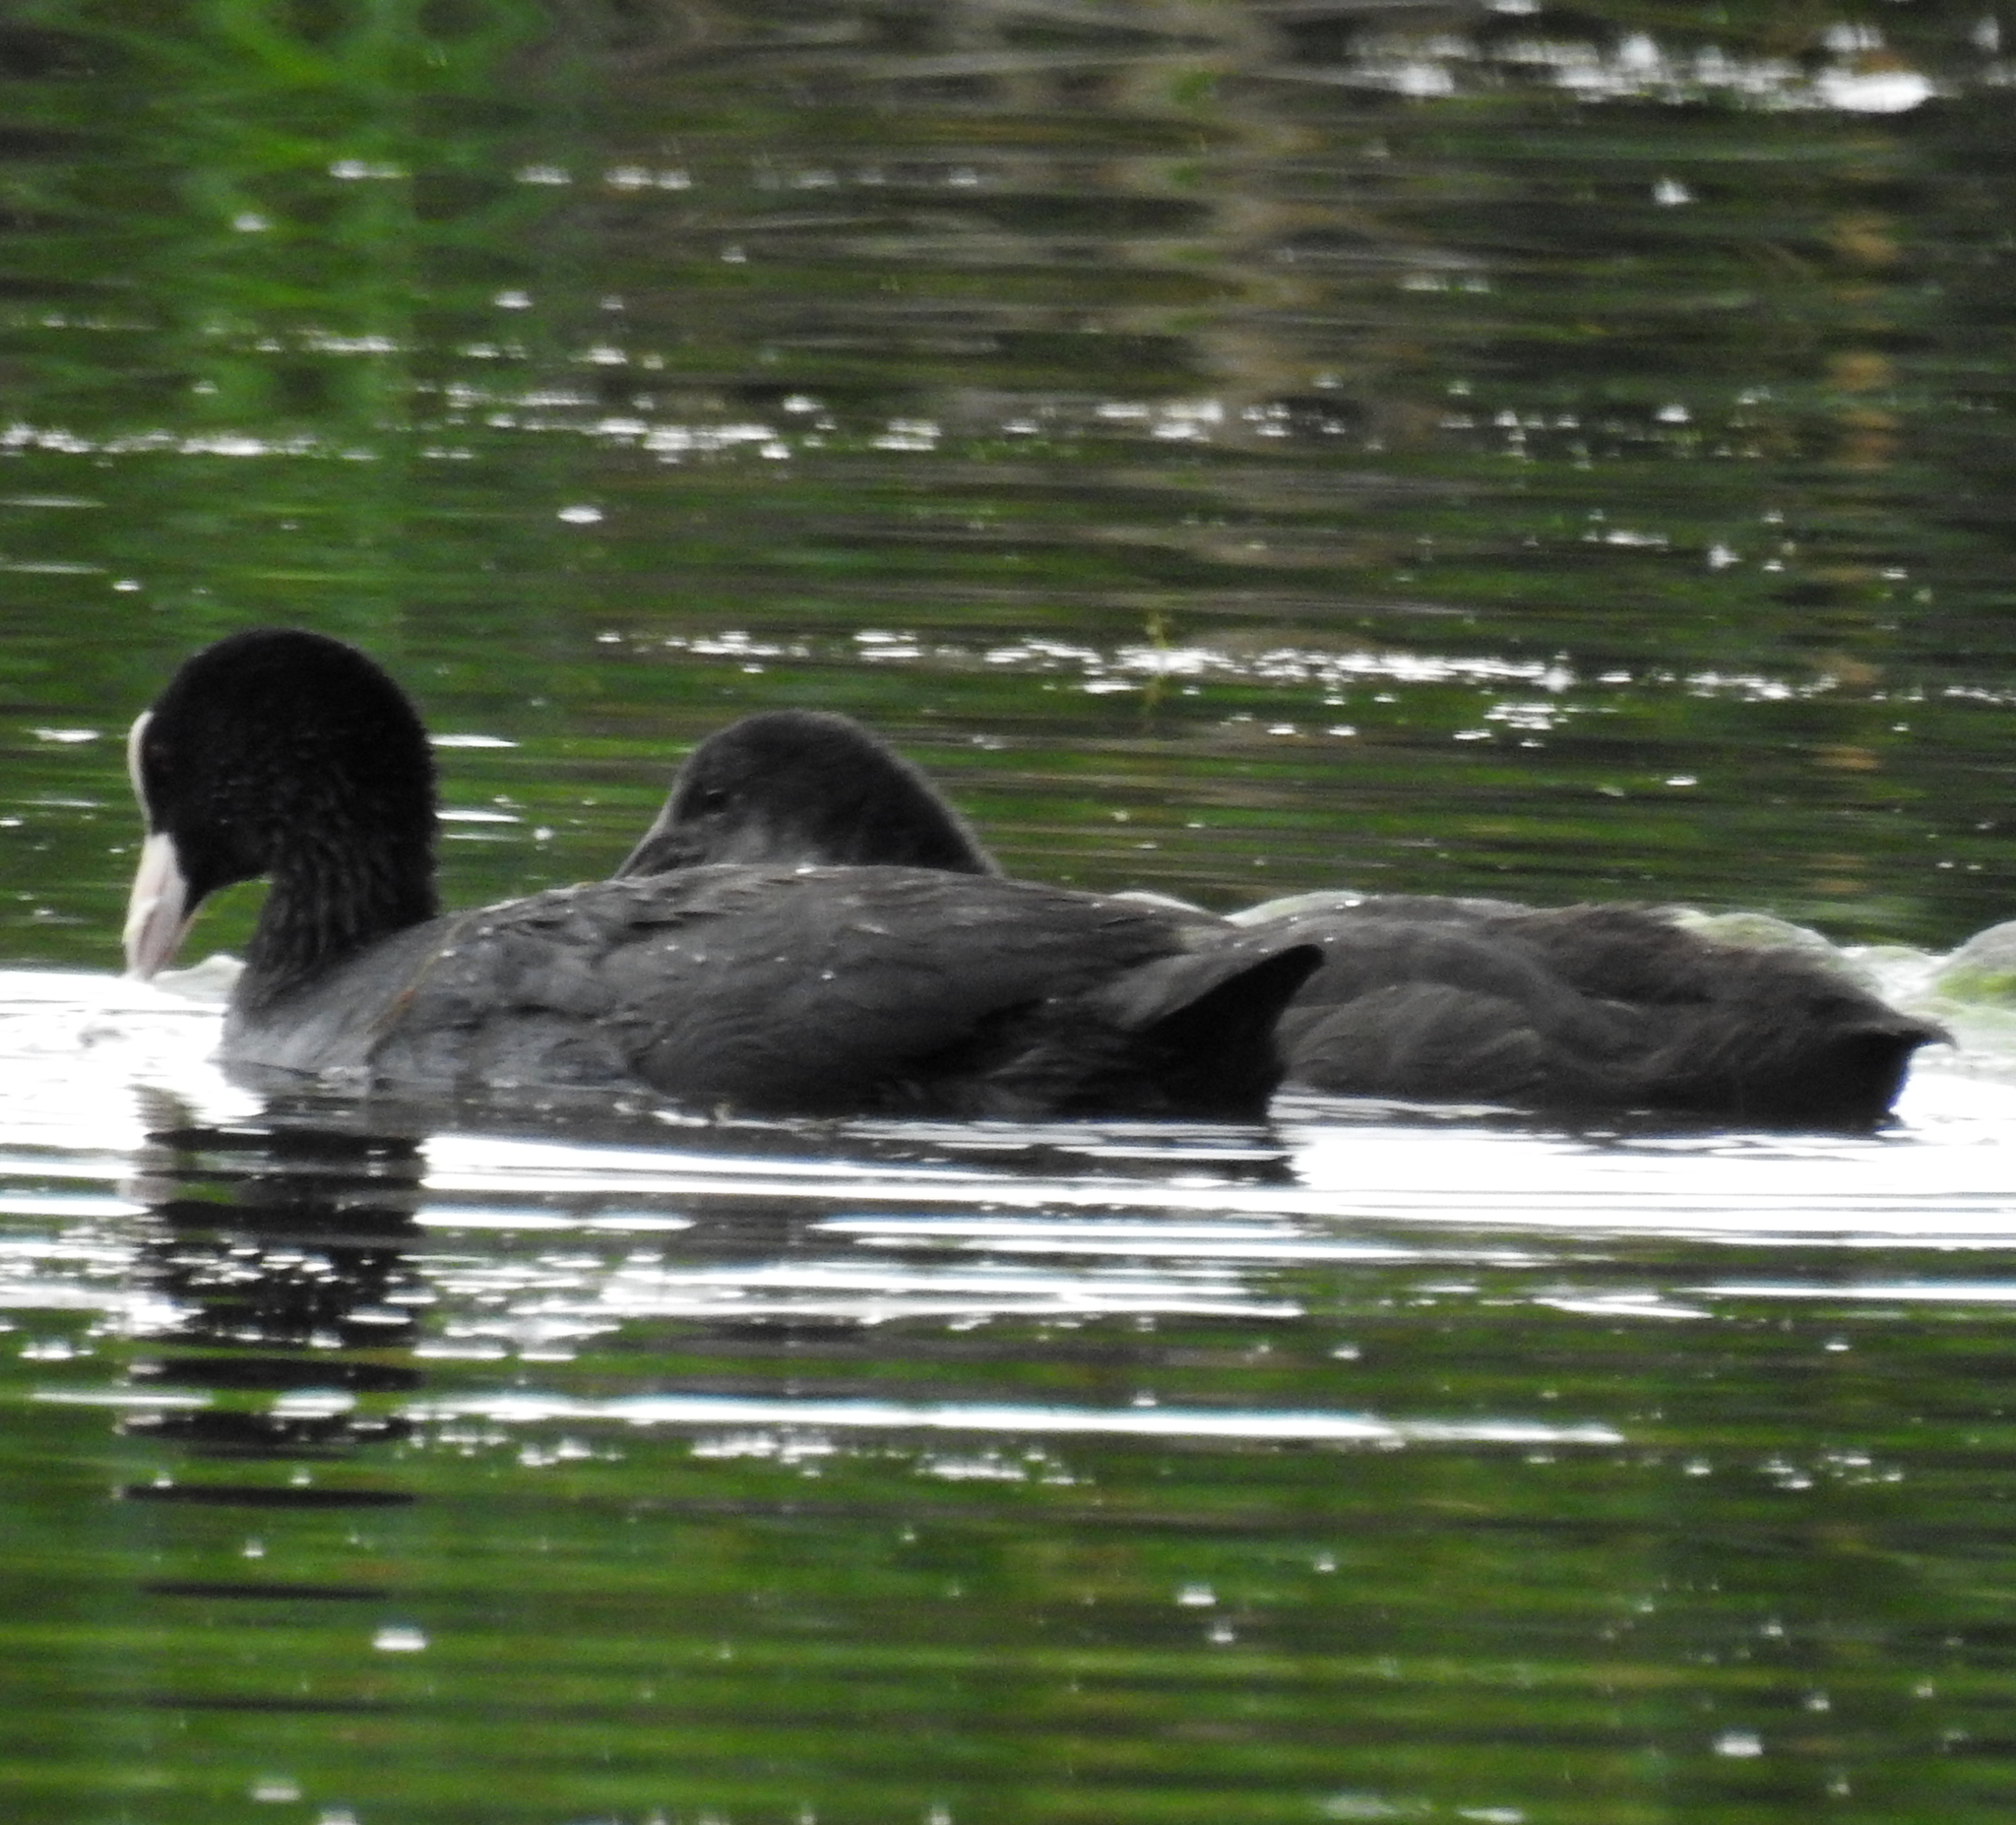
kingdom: Animalia
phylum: Chordata
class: Aves
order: Gruiformes
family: Rallidae
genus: Fulica
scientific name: Fulica atra
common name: Eurasian coot
